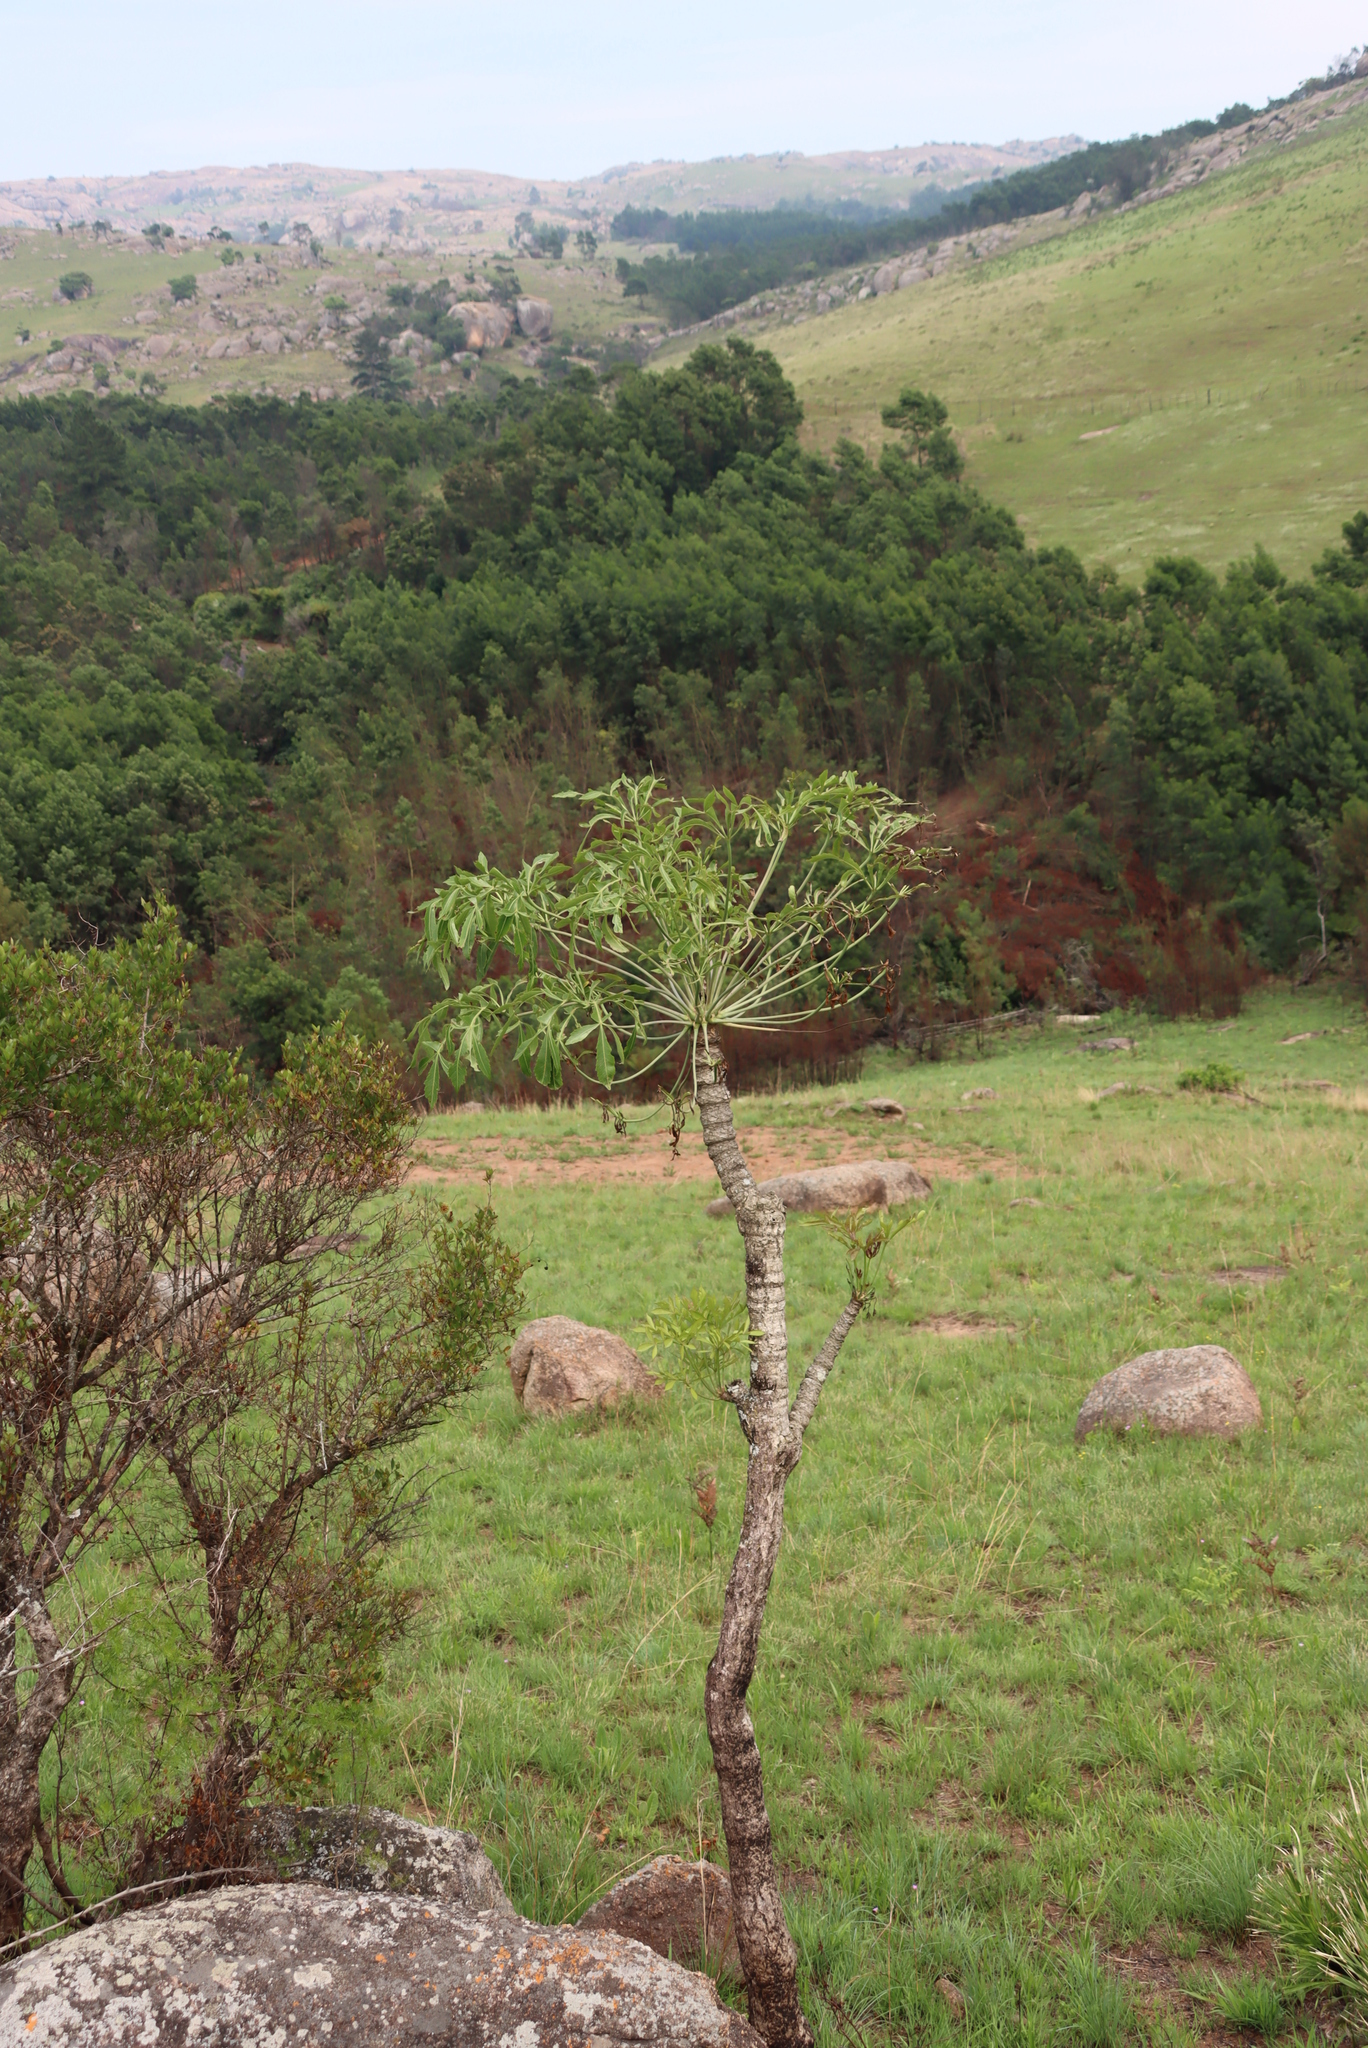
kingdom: Plantae
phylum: Tracheophyta
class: Magnoliopsida
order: Apiales
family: Araliaceae
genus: Cussonia
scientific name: Cussonia spicata
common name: Common cabbagetree
